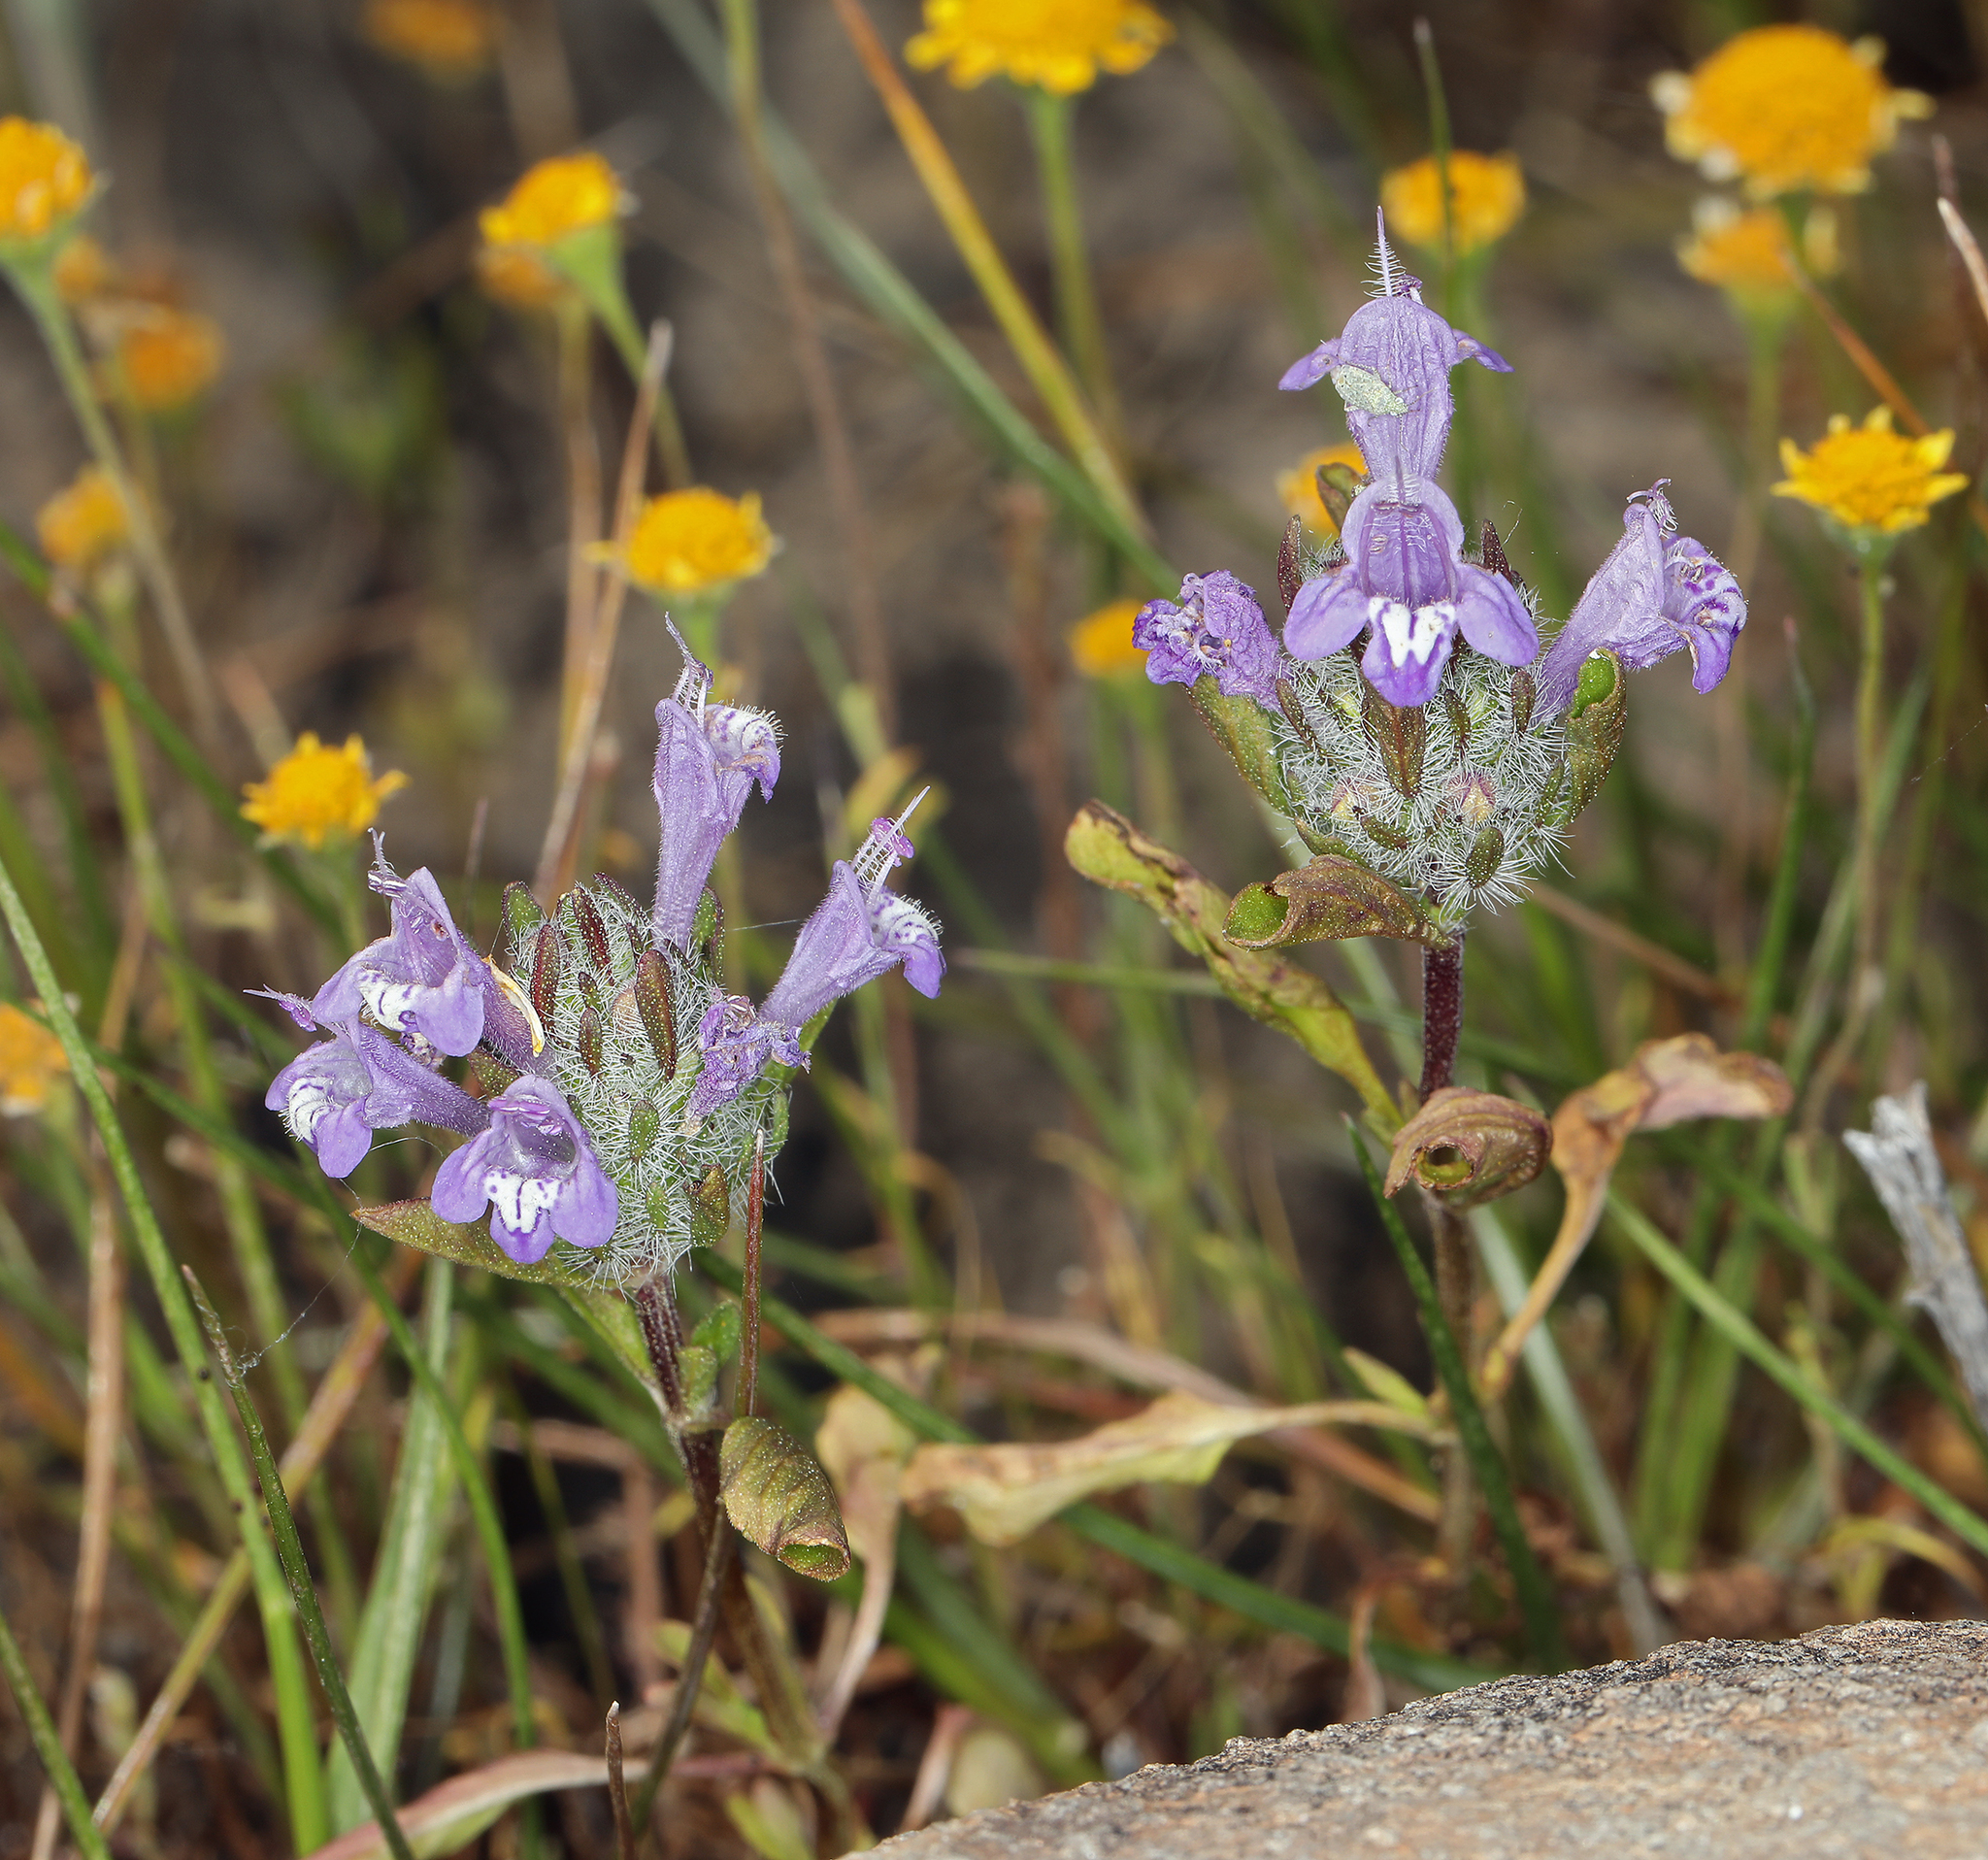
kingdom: Plantae
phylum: Tracheophyta
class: Magnoliopsida
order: Lamiales
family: Lamiaceae
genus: Pogogyne
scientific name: Pogogyne douglasii
